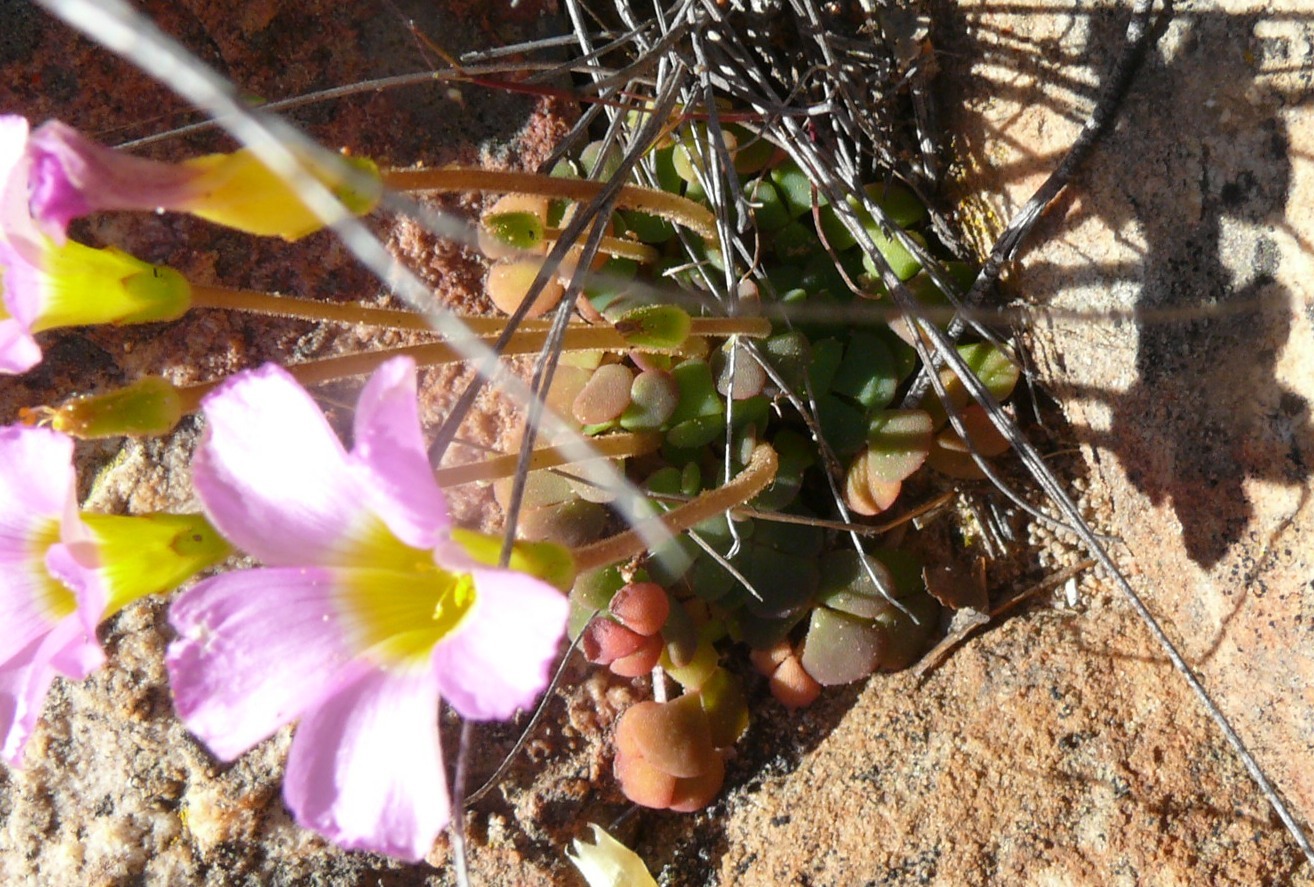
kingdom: Plantae
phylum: Tracheophyta
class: Magnoliopsida
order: Oxalidales
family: Oxalidaceae
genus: Oxalis
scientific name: Oxalis fergusoniae
